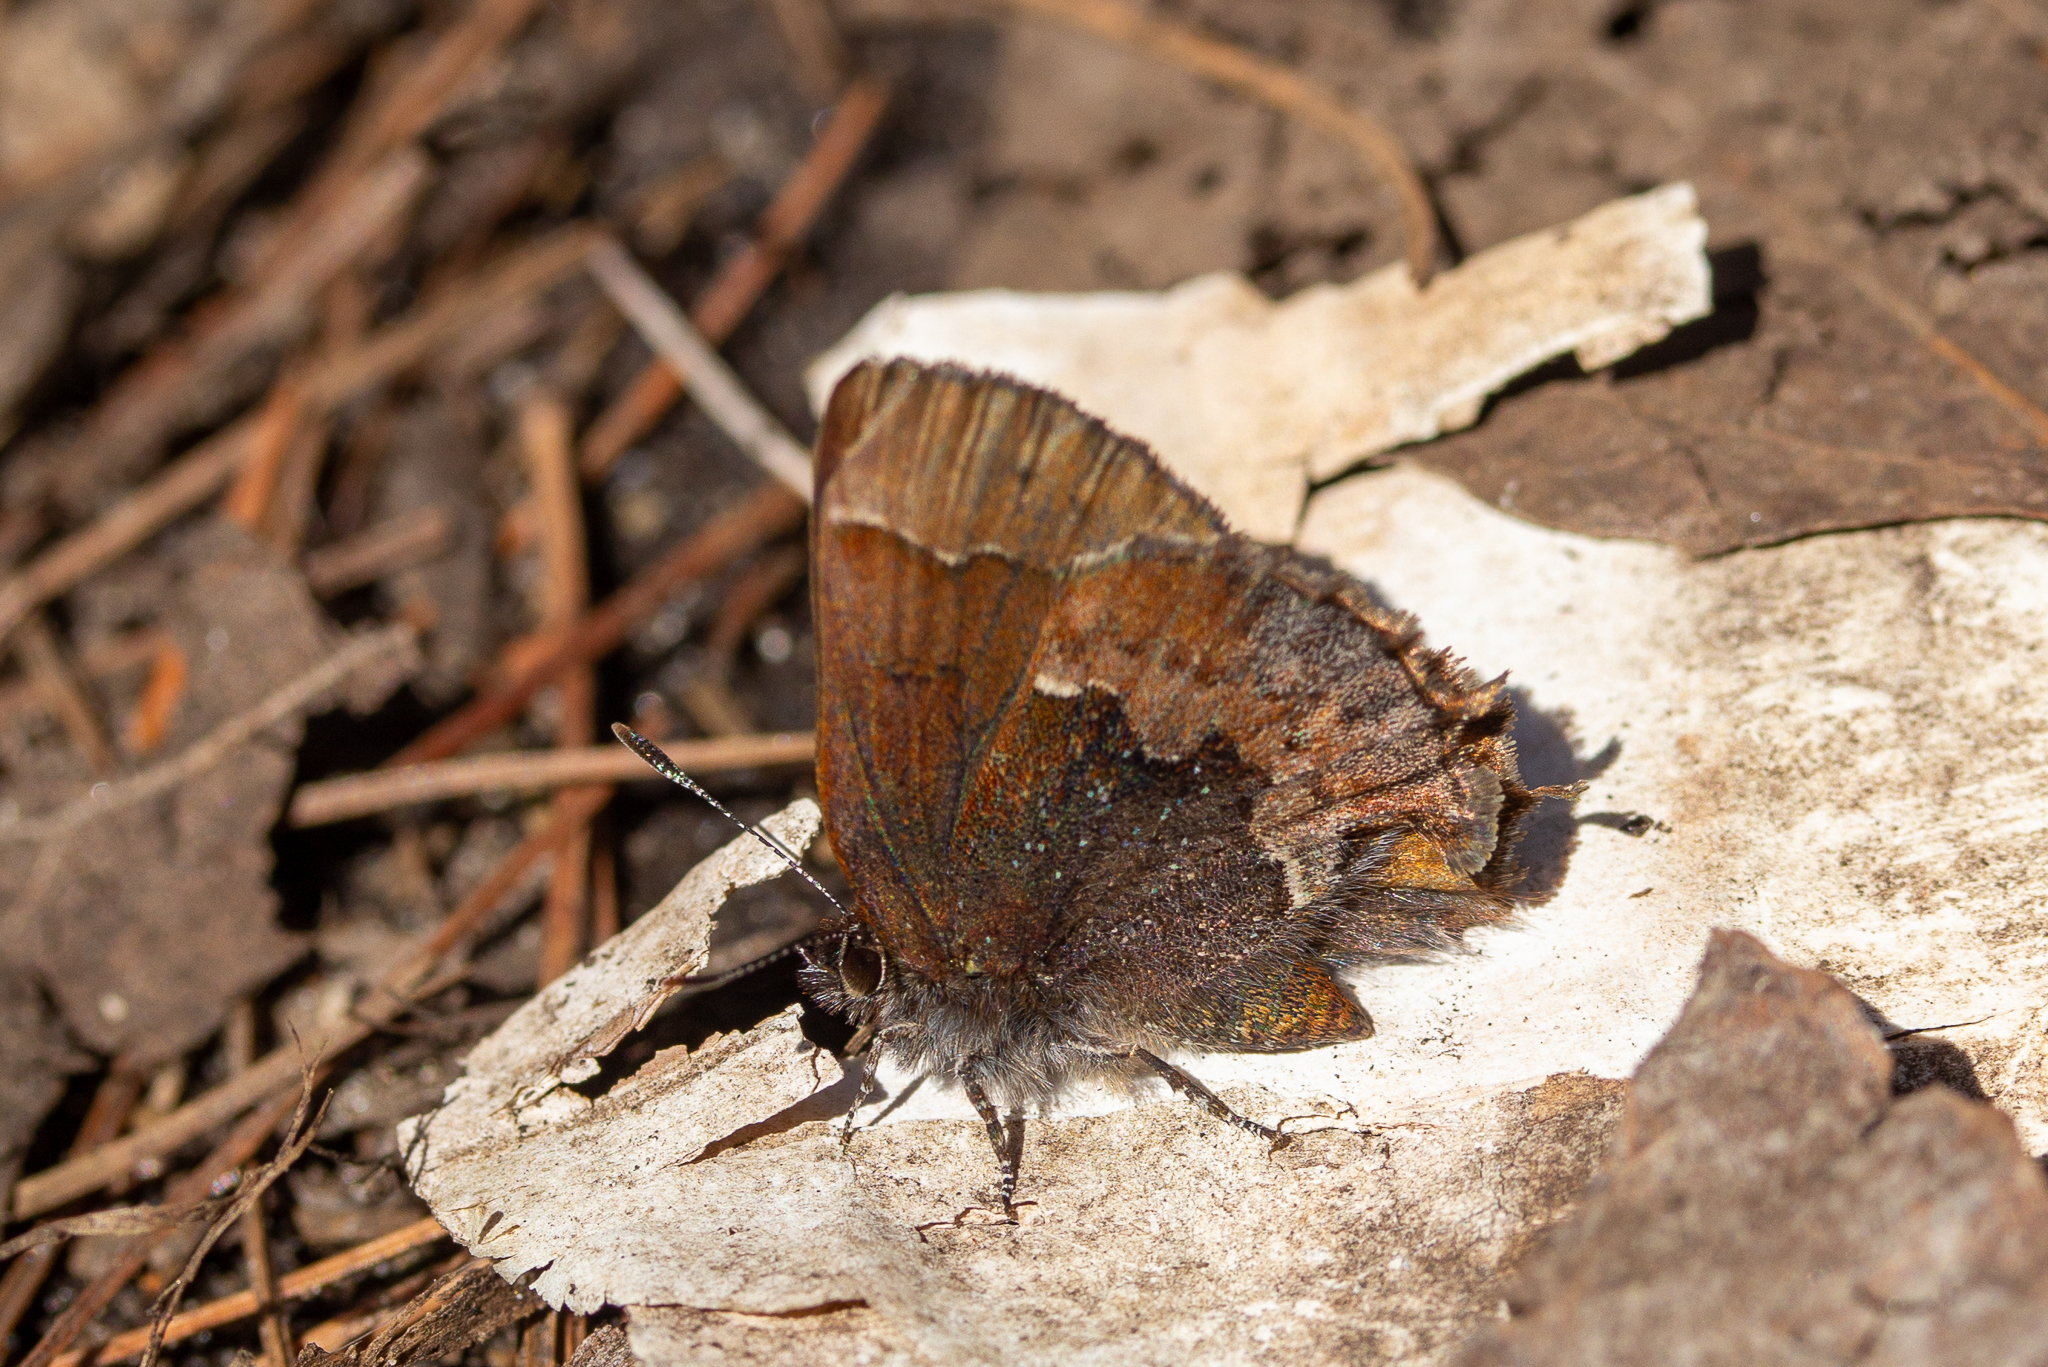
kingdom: Animalia
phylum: Arthropoda
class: Insecta
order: Lepidoptera
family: Lycaenidae
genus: Incisalia
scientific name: Incisalia henrici
